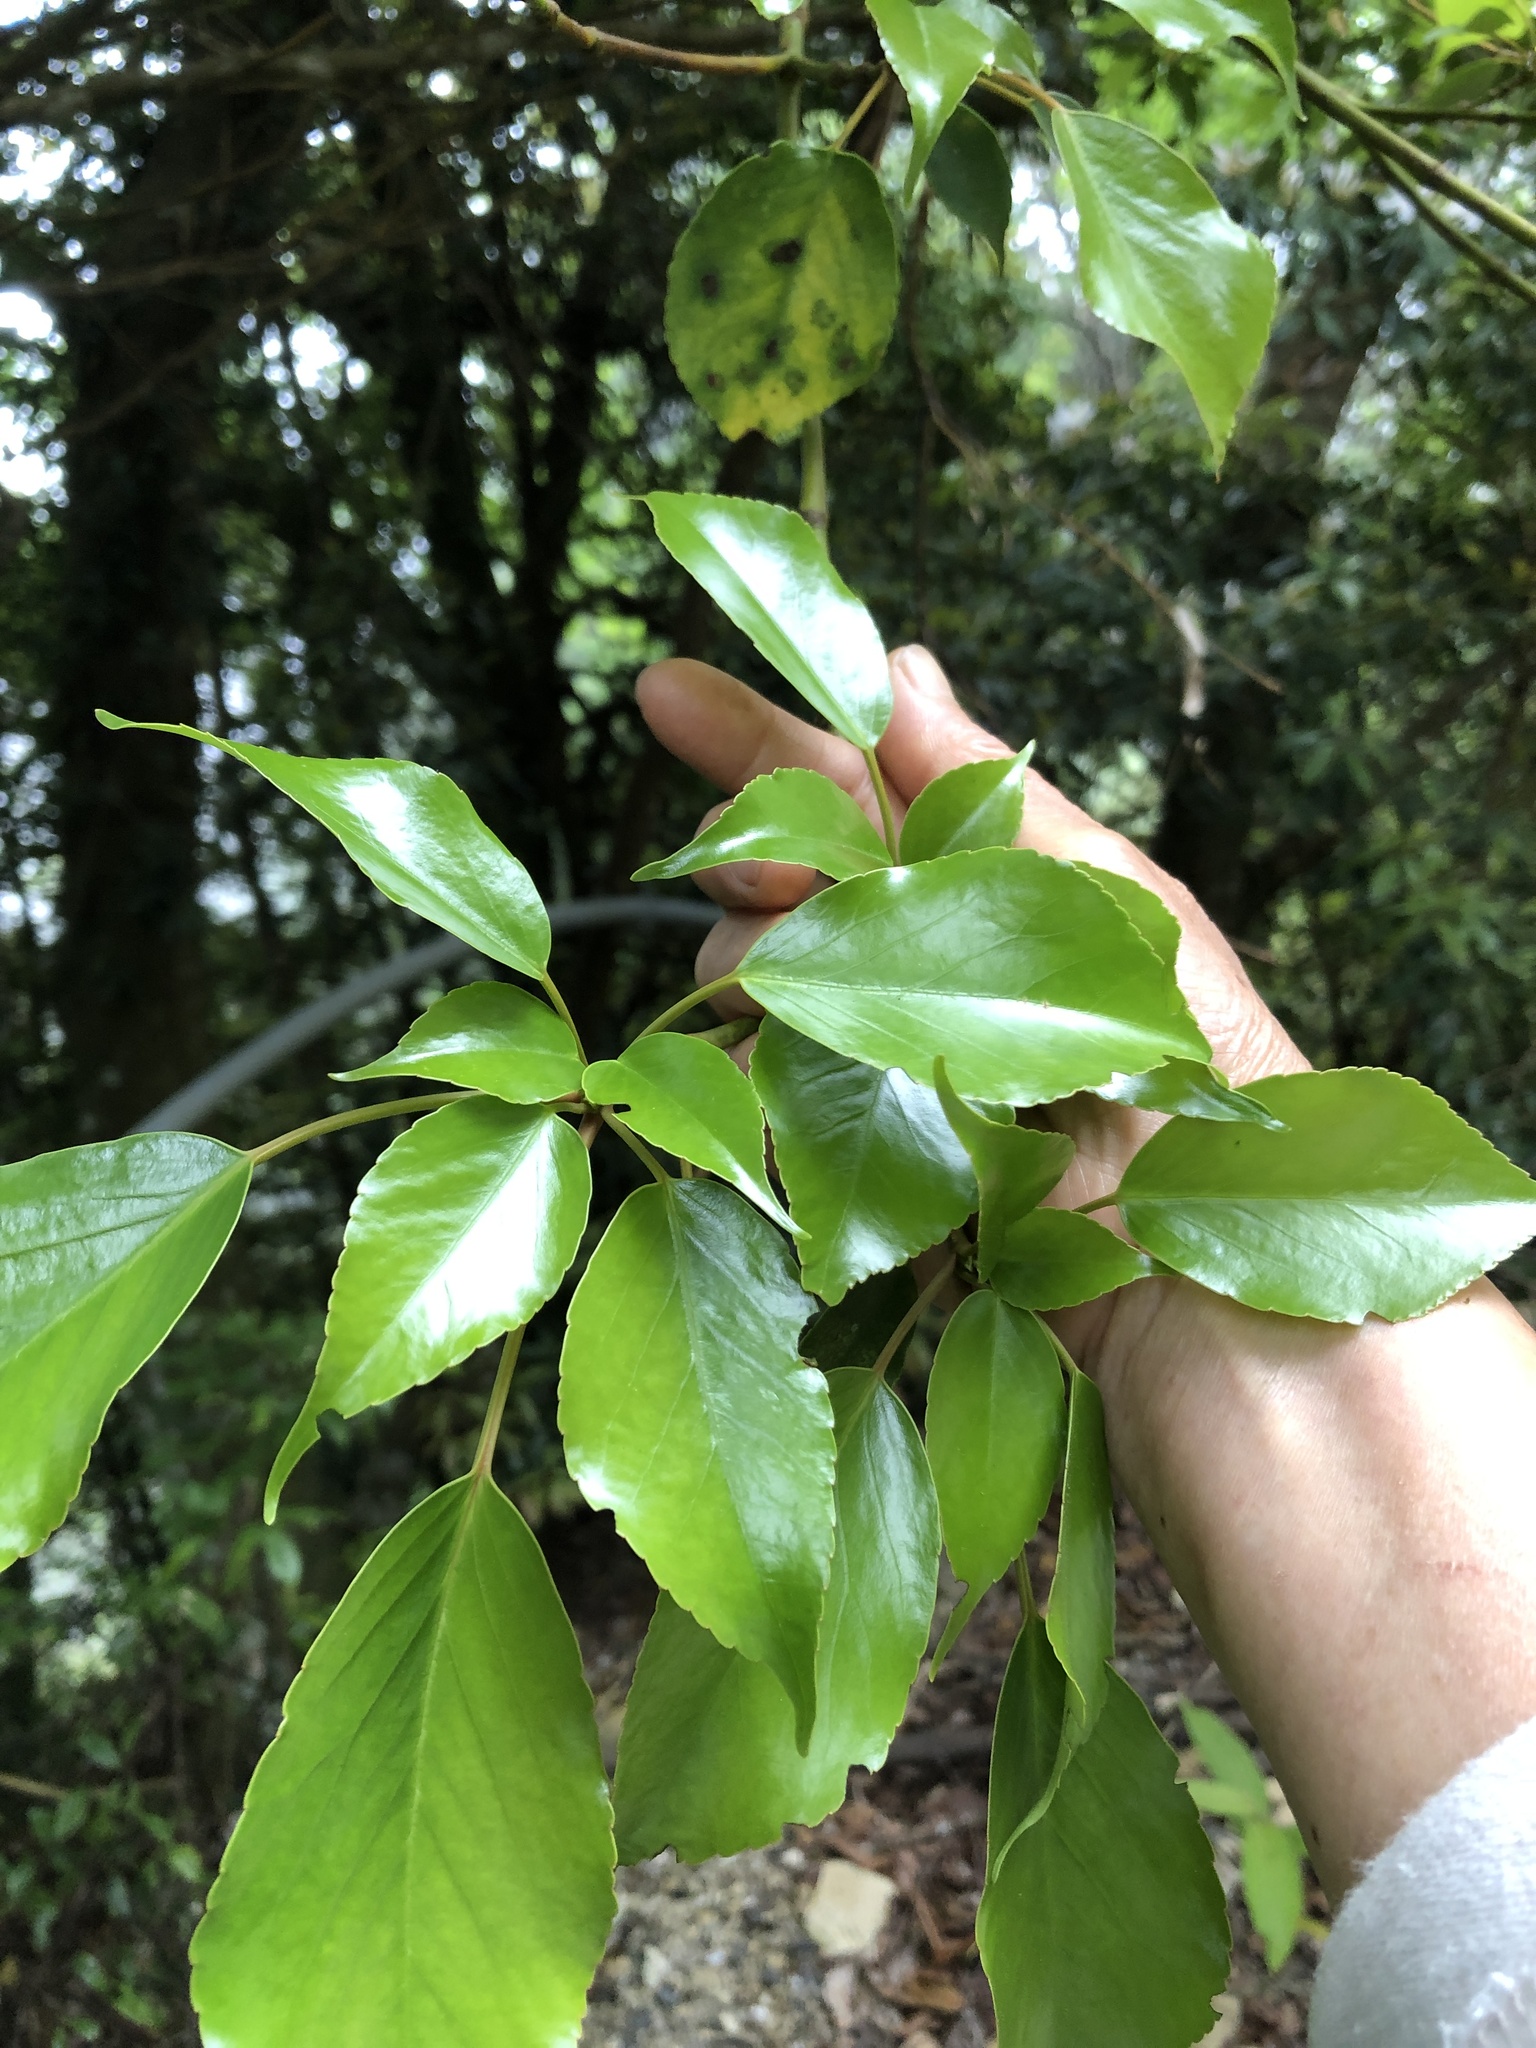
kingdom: Plantae
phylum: Tracheophyta
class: Magnoliopsida
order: Trochodendrales
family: Trochodendraceae
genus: Trochodendron
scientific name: Trochodendron aralioides
